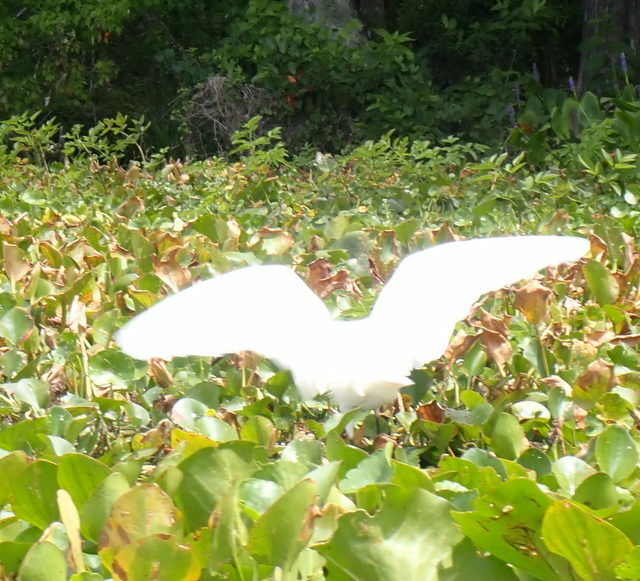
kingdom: Animalia
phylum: Chordata
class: Aves
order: Pelecaniformes
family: Ardeidae
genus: Egretta
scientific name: Egretta thula
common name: Snowy egret
